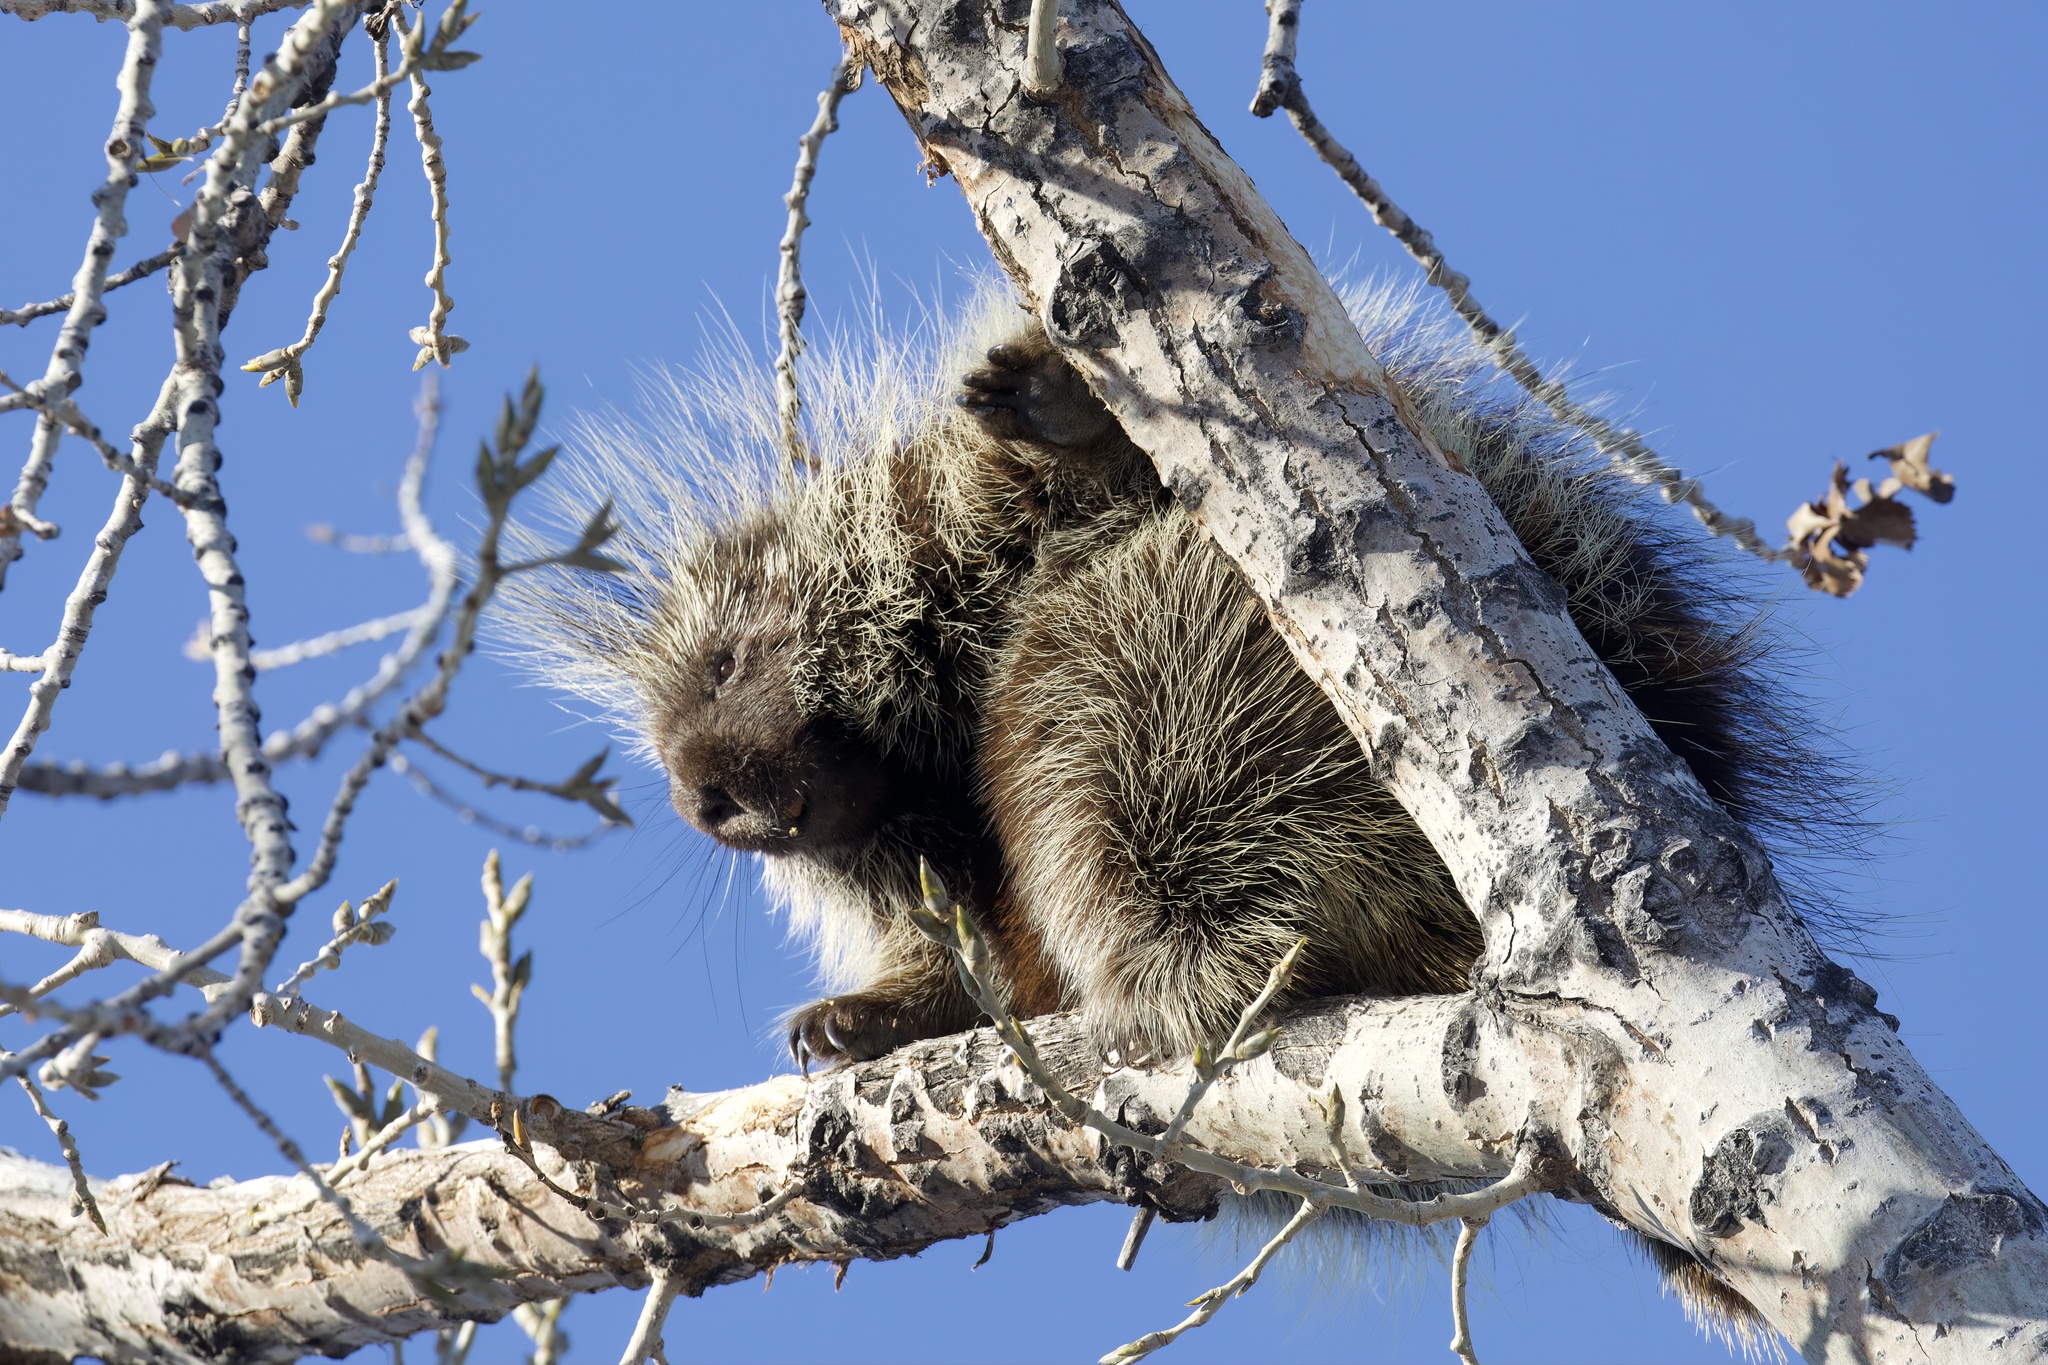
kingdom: Animalia
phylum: Chordata
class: Mammalia
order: Rodentia
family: Erethizontidae
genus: Erethizon
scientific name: Erethizon dorsatus
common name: North american porcupine
